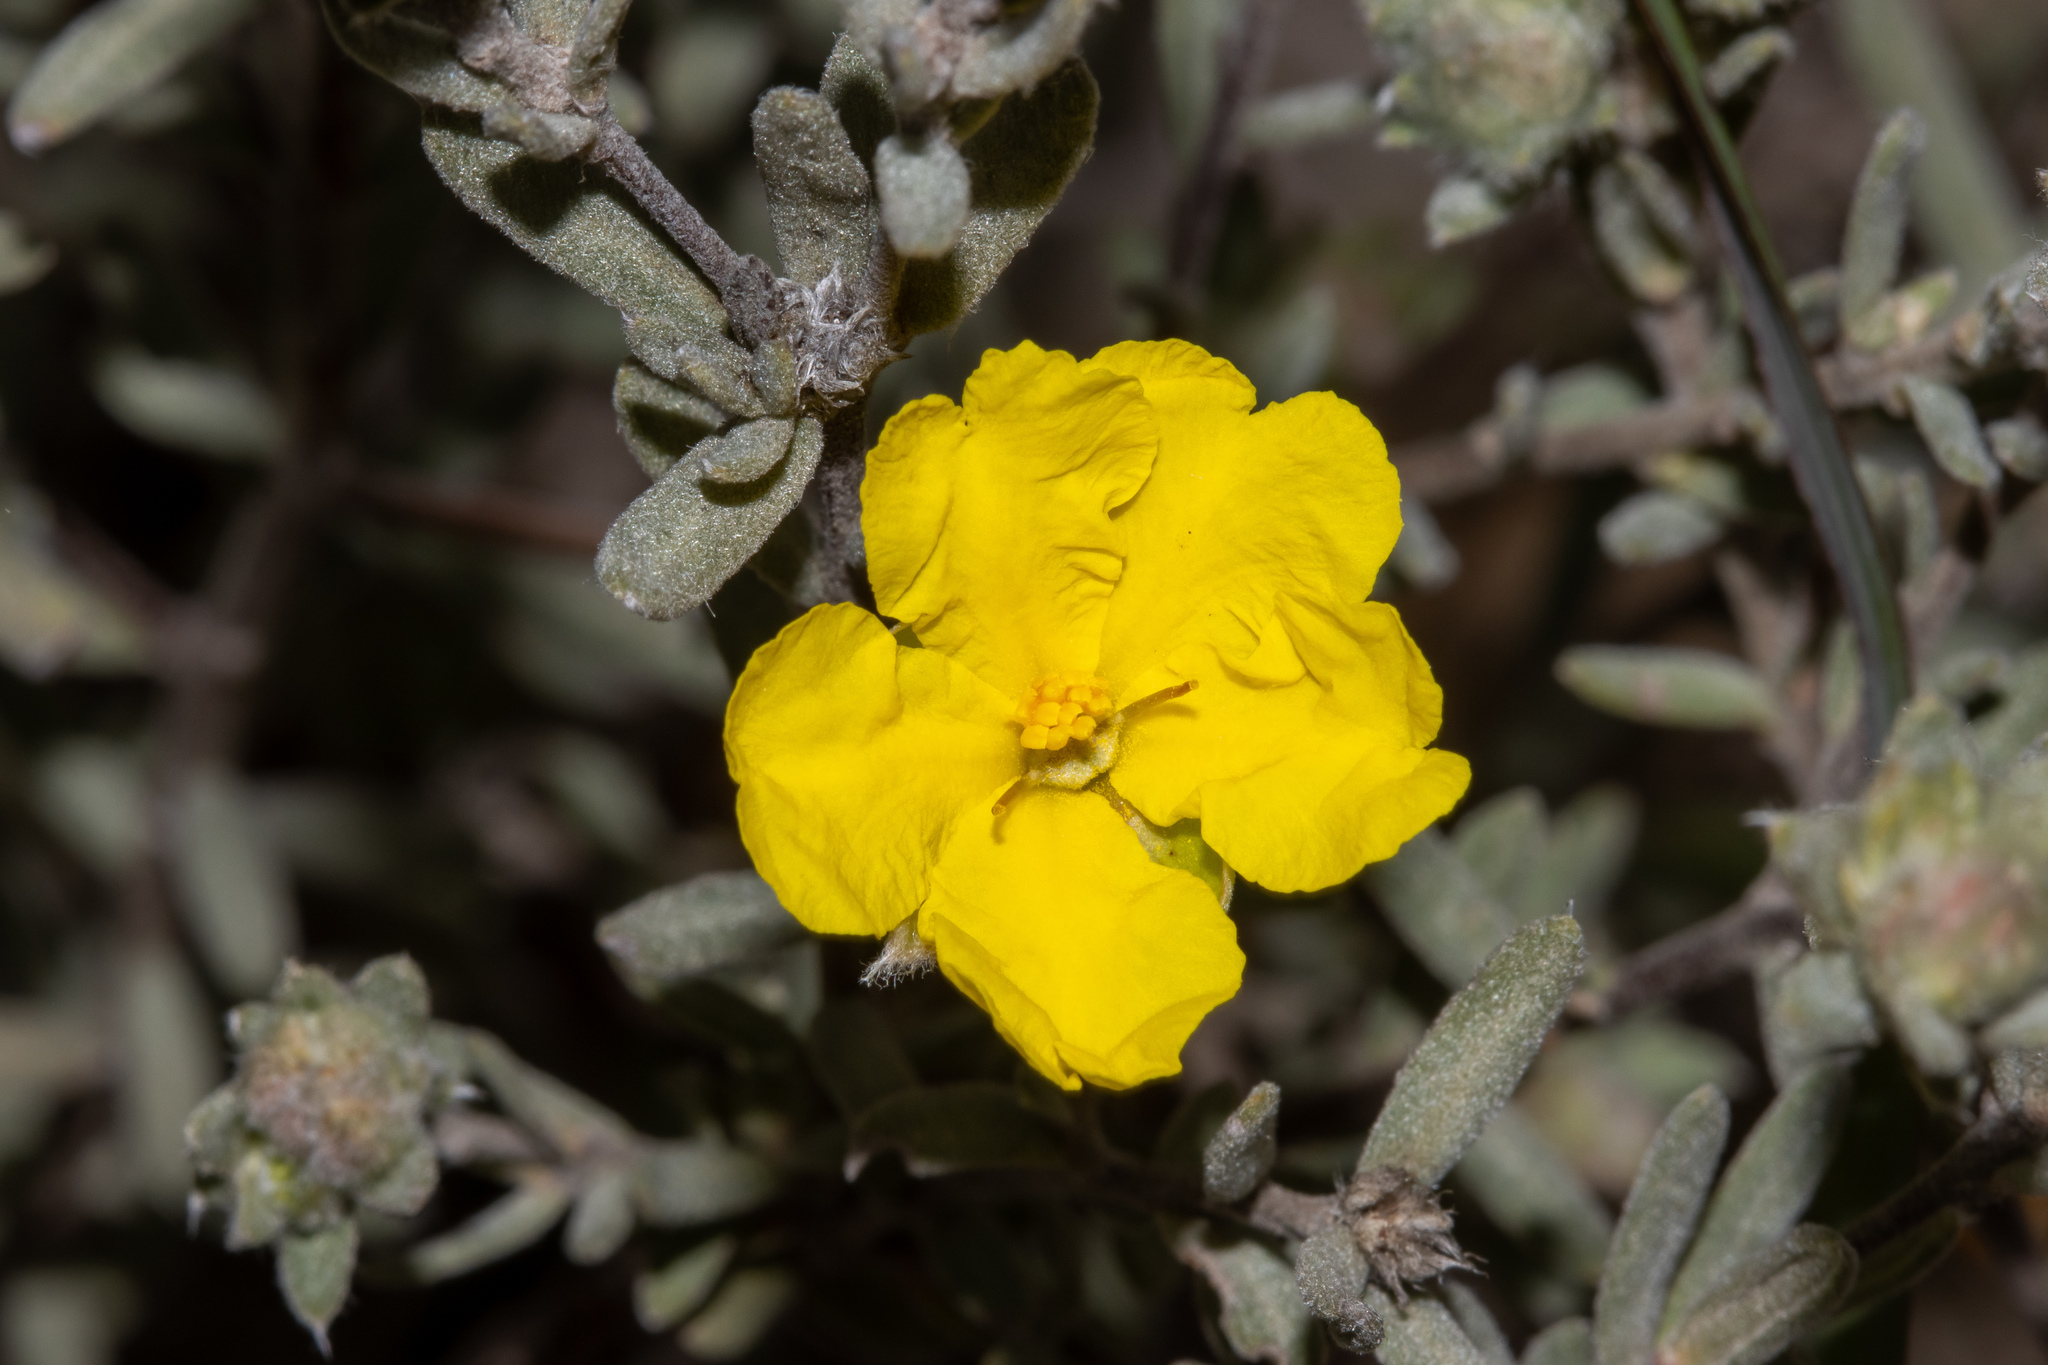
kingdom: Plantae
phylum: Tracheophyta
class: Magnoliopsida
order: Dilleniales
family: Dilleniaceae
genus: Hibbertia
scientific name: Hibbertia crinita
